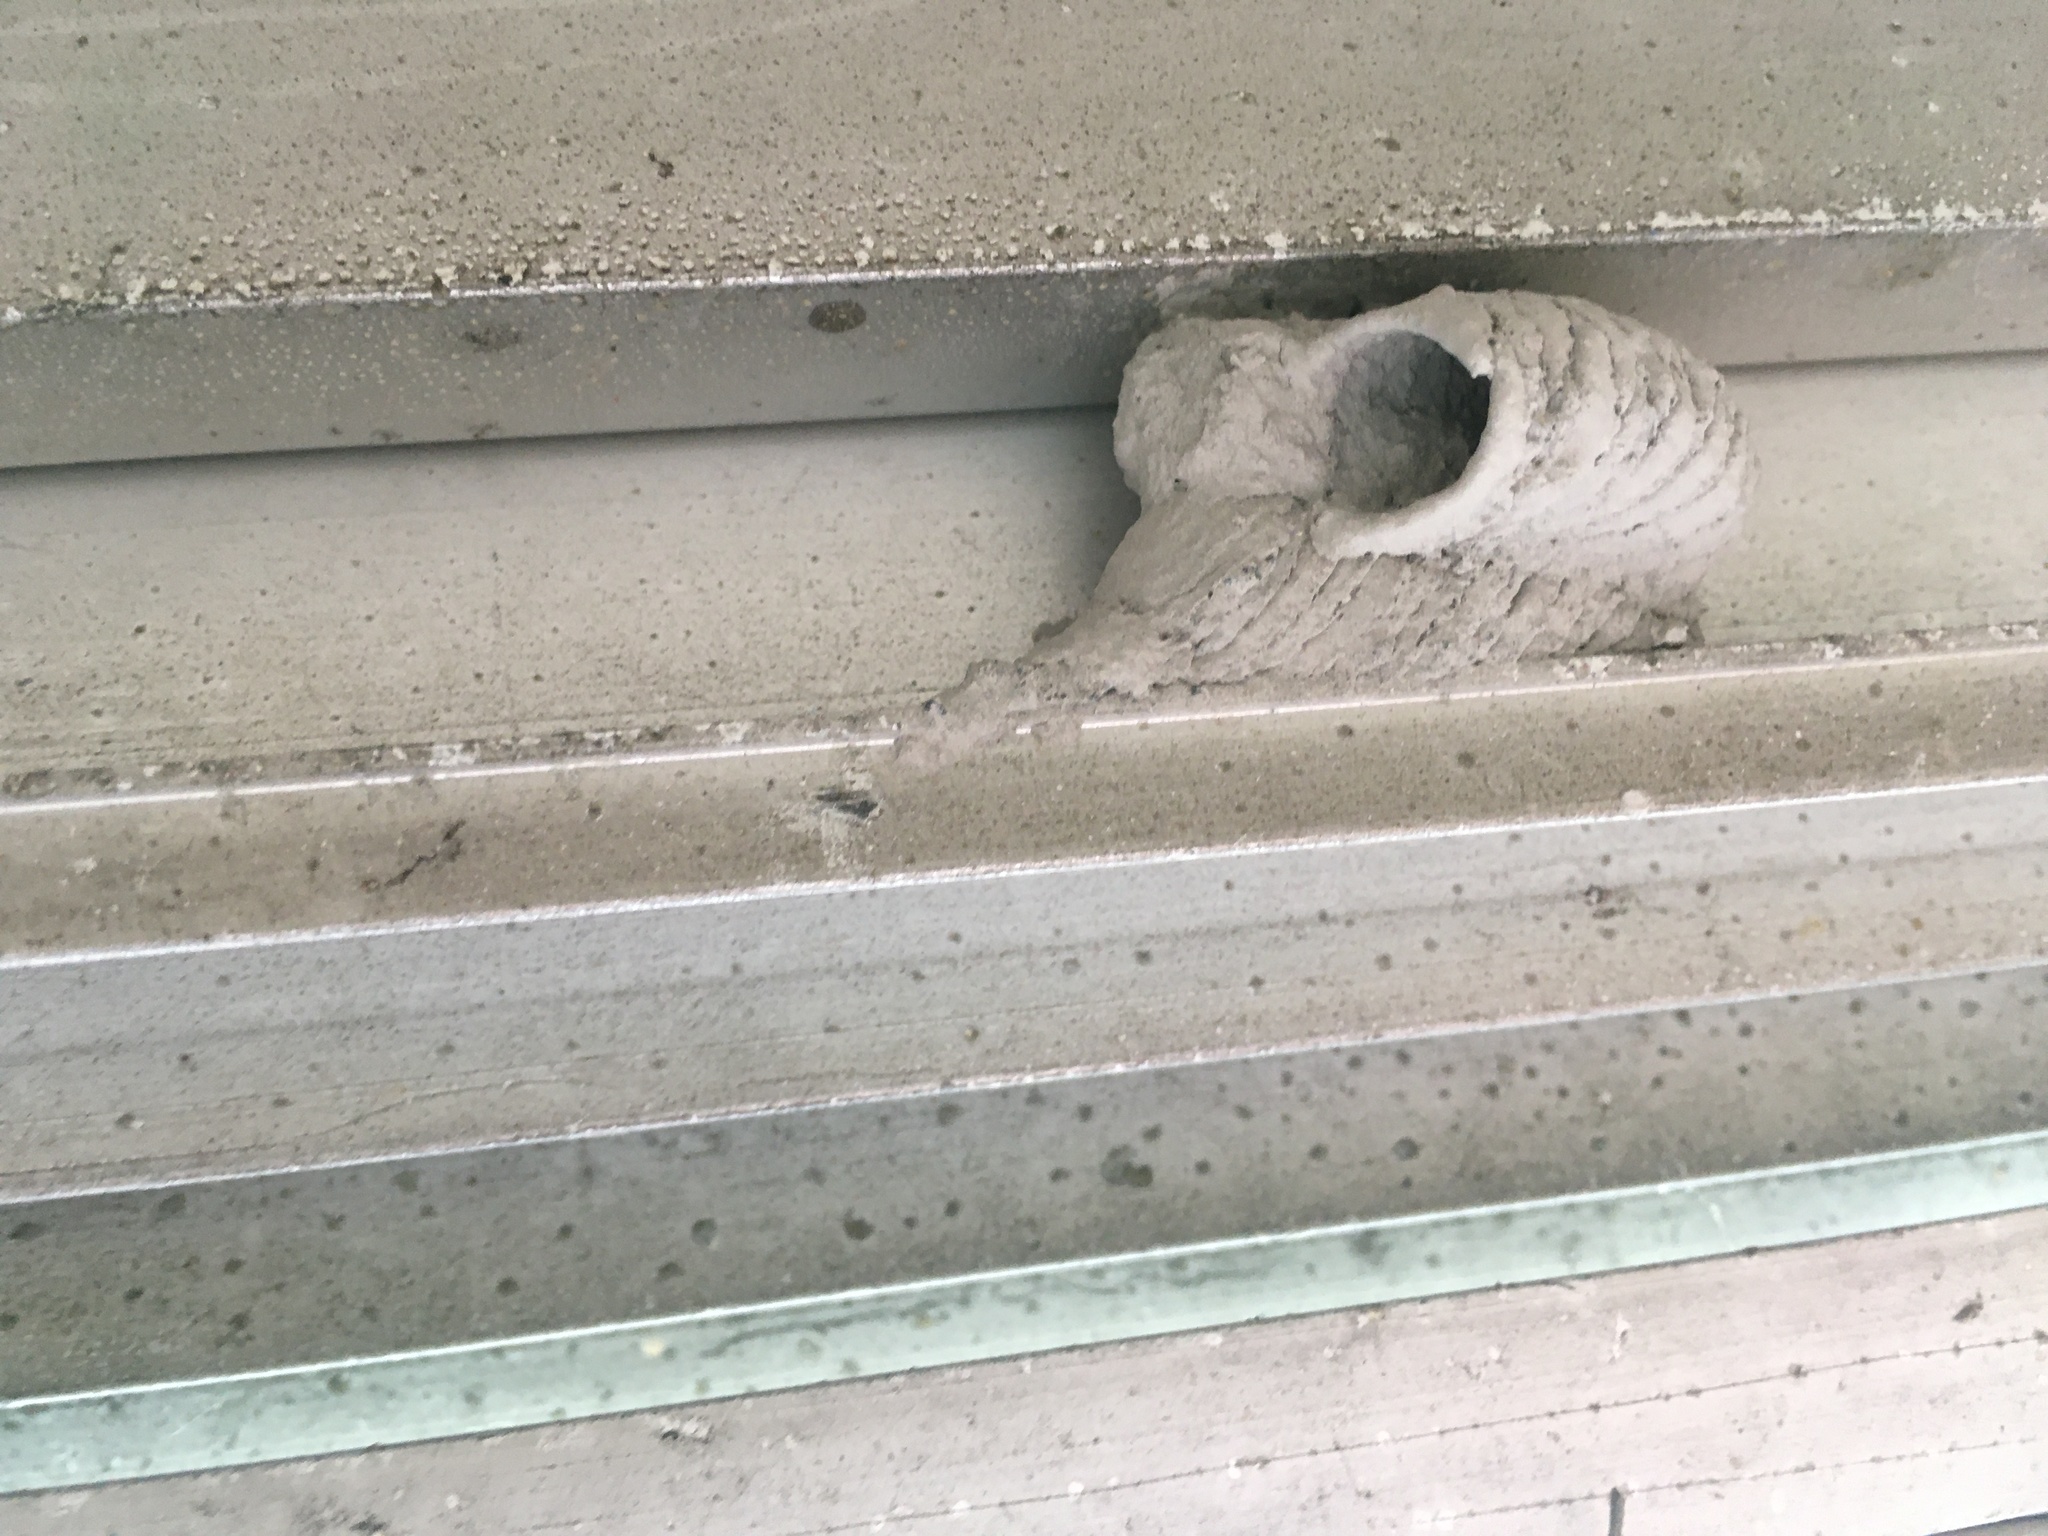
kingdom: Animalia
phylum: Arthropoda
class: Insecta
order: Hymenoptera
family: Sphecidae
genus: Sceliphron
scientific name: Sceliphron caementarium
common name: Mud dauber
